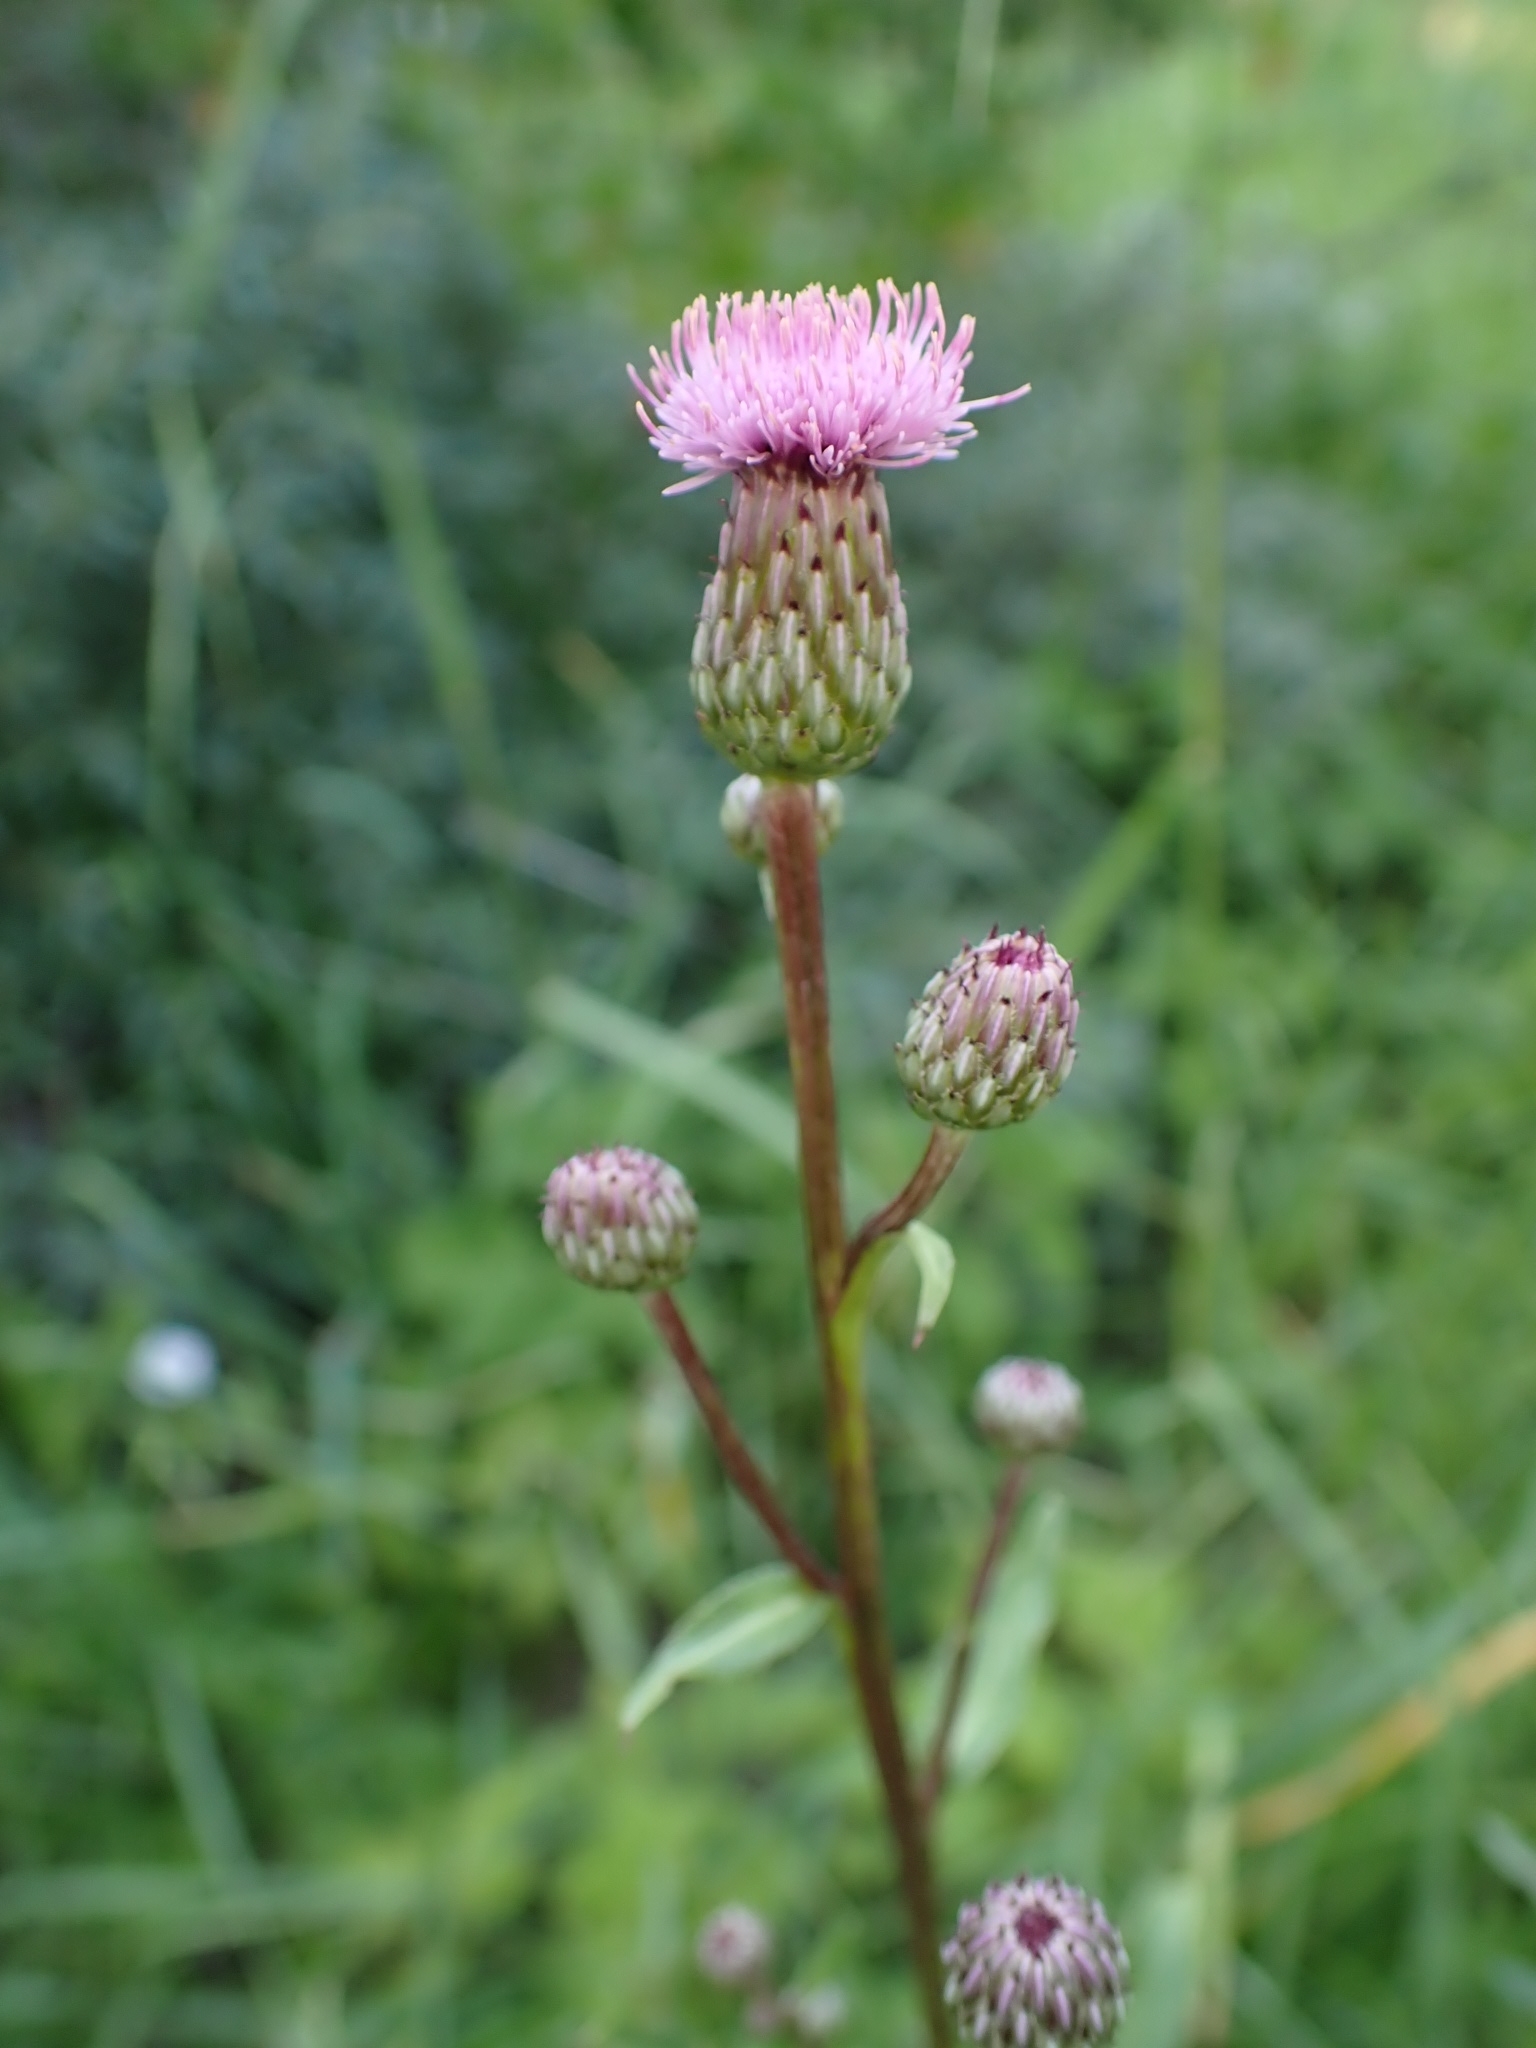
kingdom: Plantae
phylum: Tracheophyta
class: Magnoliopsida
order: Asterales
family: Asteraceae
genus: Cirsium
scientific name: Cirsium arvense
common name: Creeping thistle
